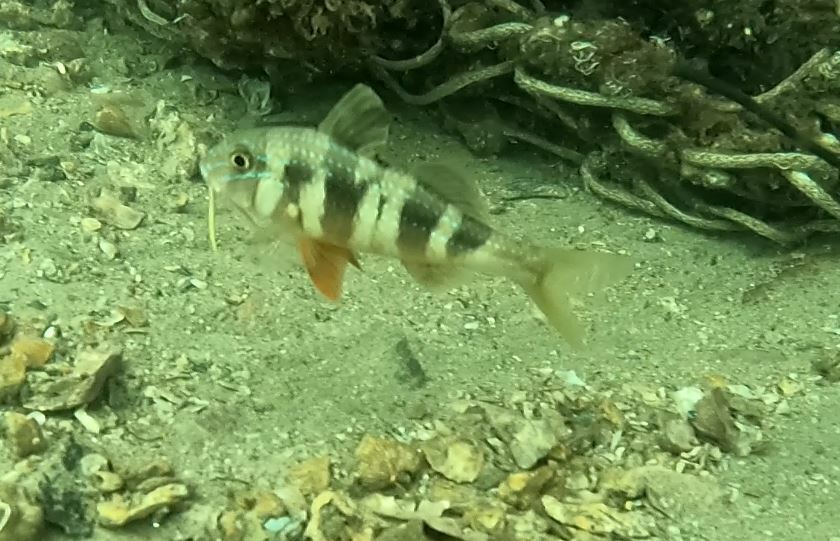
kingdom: Animalia
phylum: Chordata
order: Perciformes
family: Mullidae
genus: Upeneichthys
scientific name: Upeneichthys lineatus
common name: Red mullet
